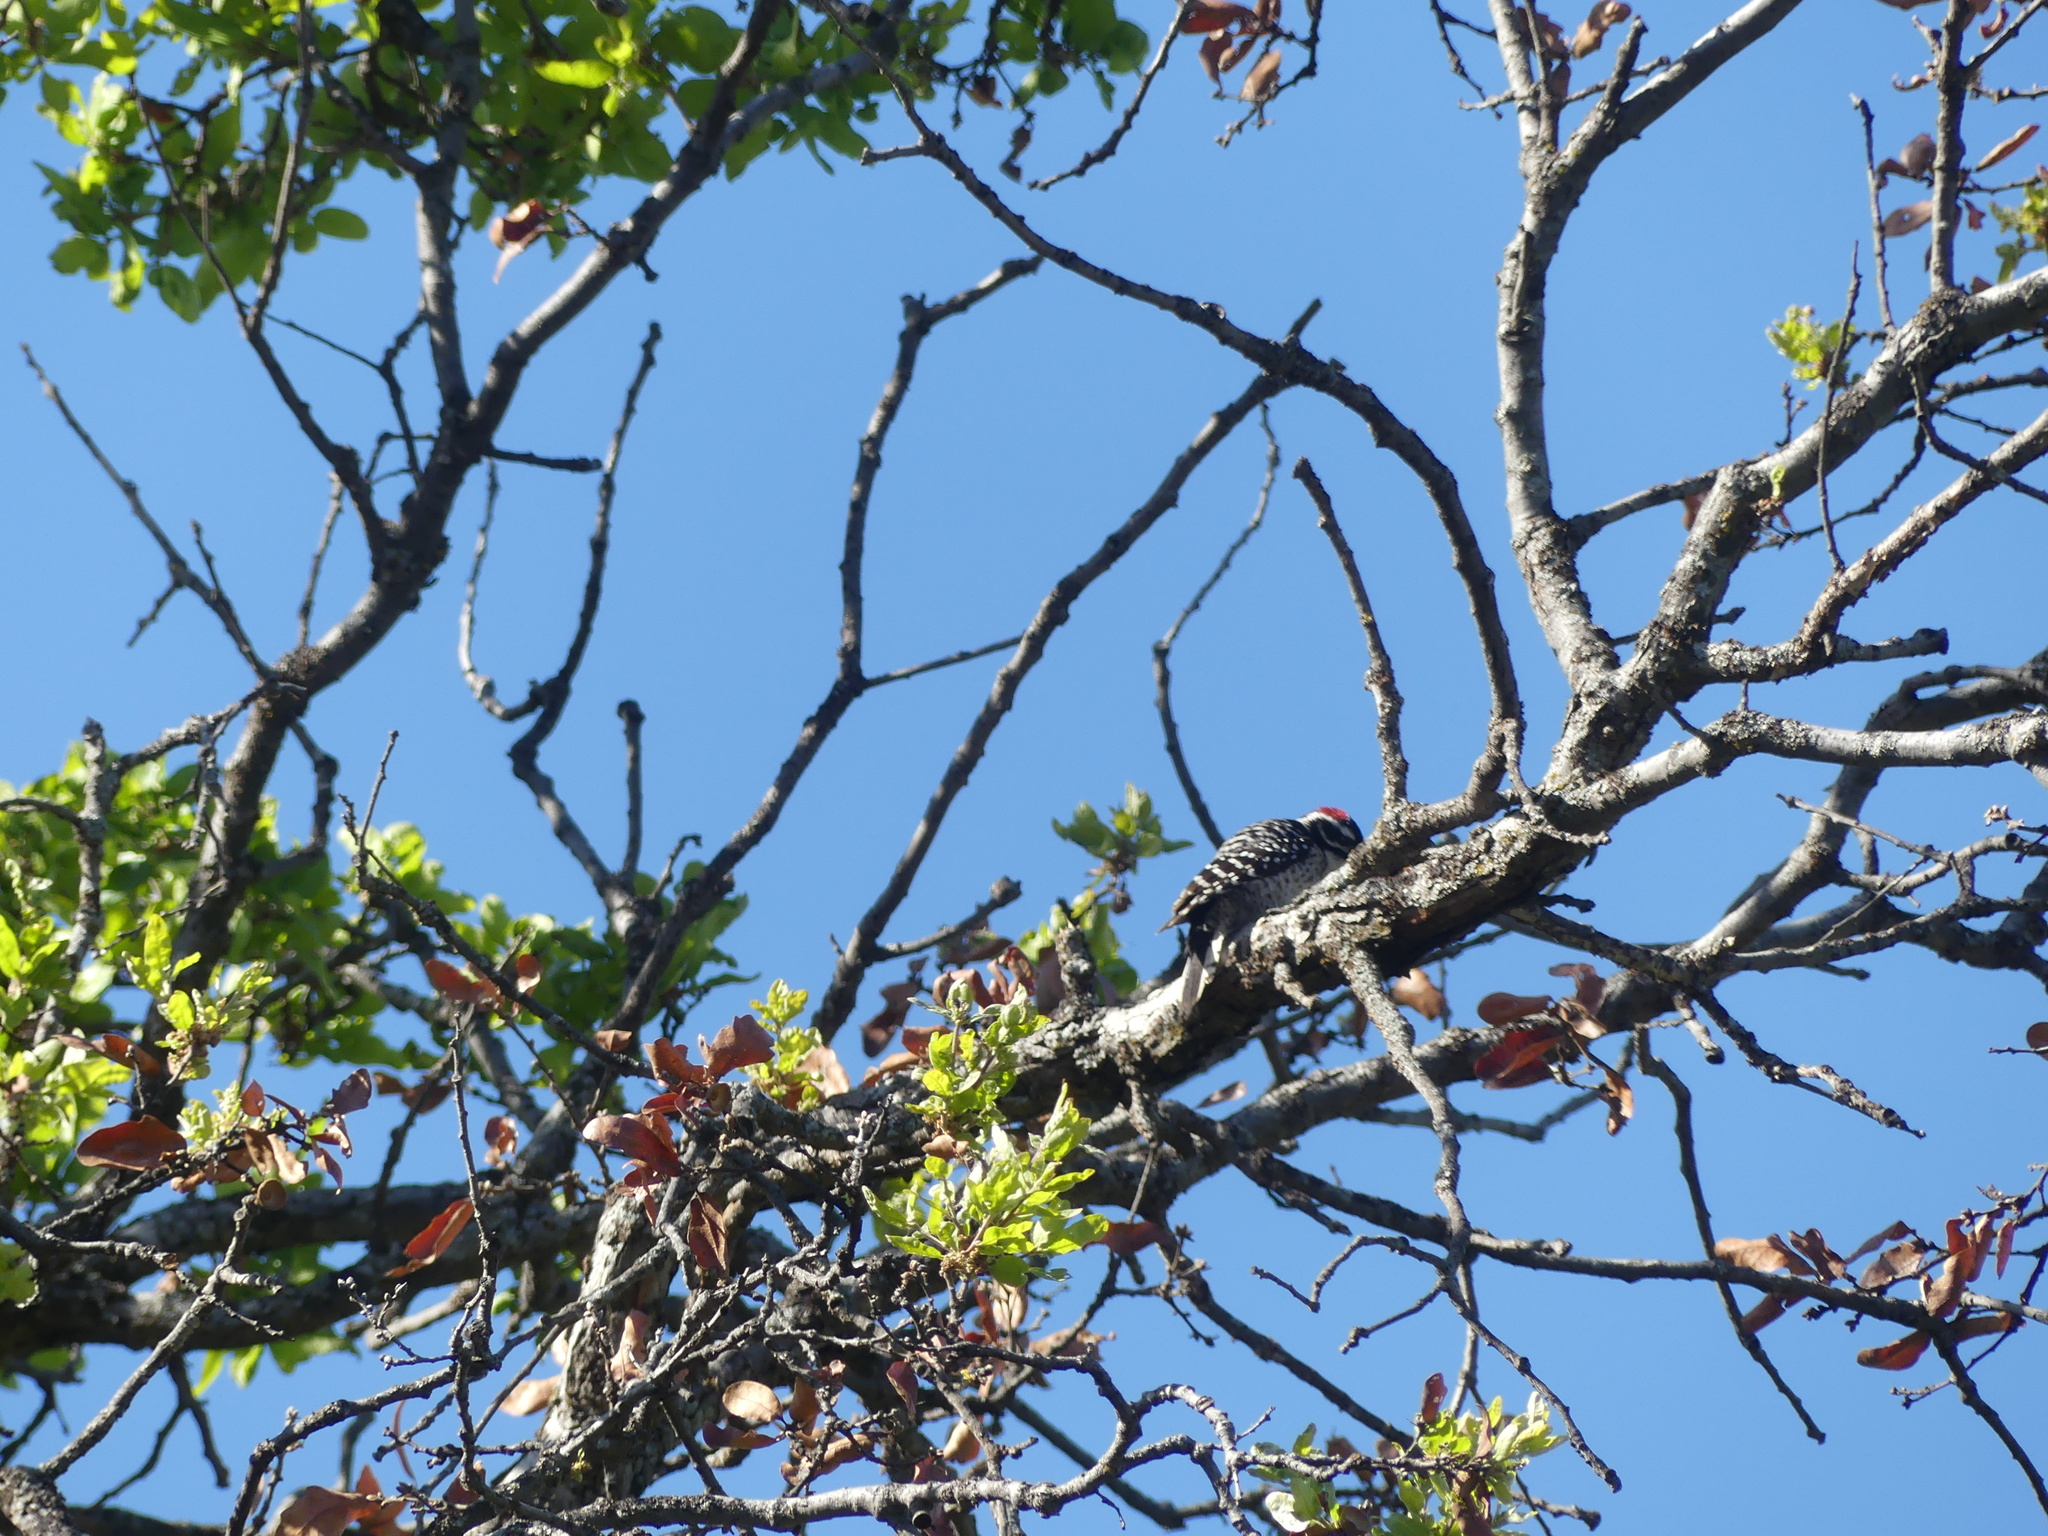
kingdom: Animalia
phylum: Chordata
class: Aves
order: Piciformes
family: Picidae
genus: Dryobates
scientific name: Dryobates nuttallii
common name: Nuttall's woodpecker
